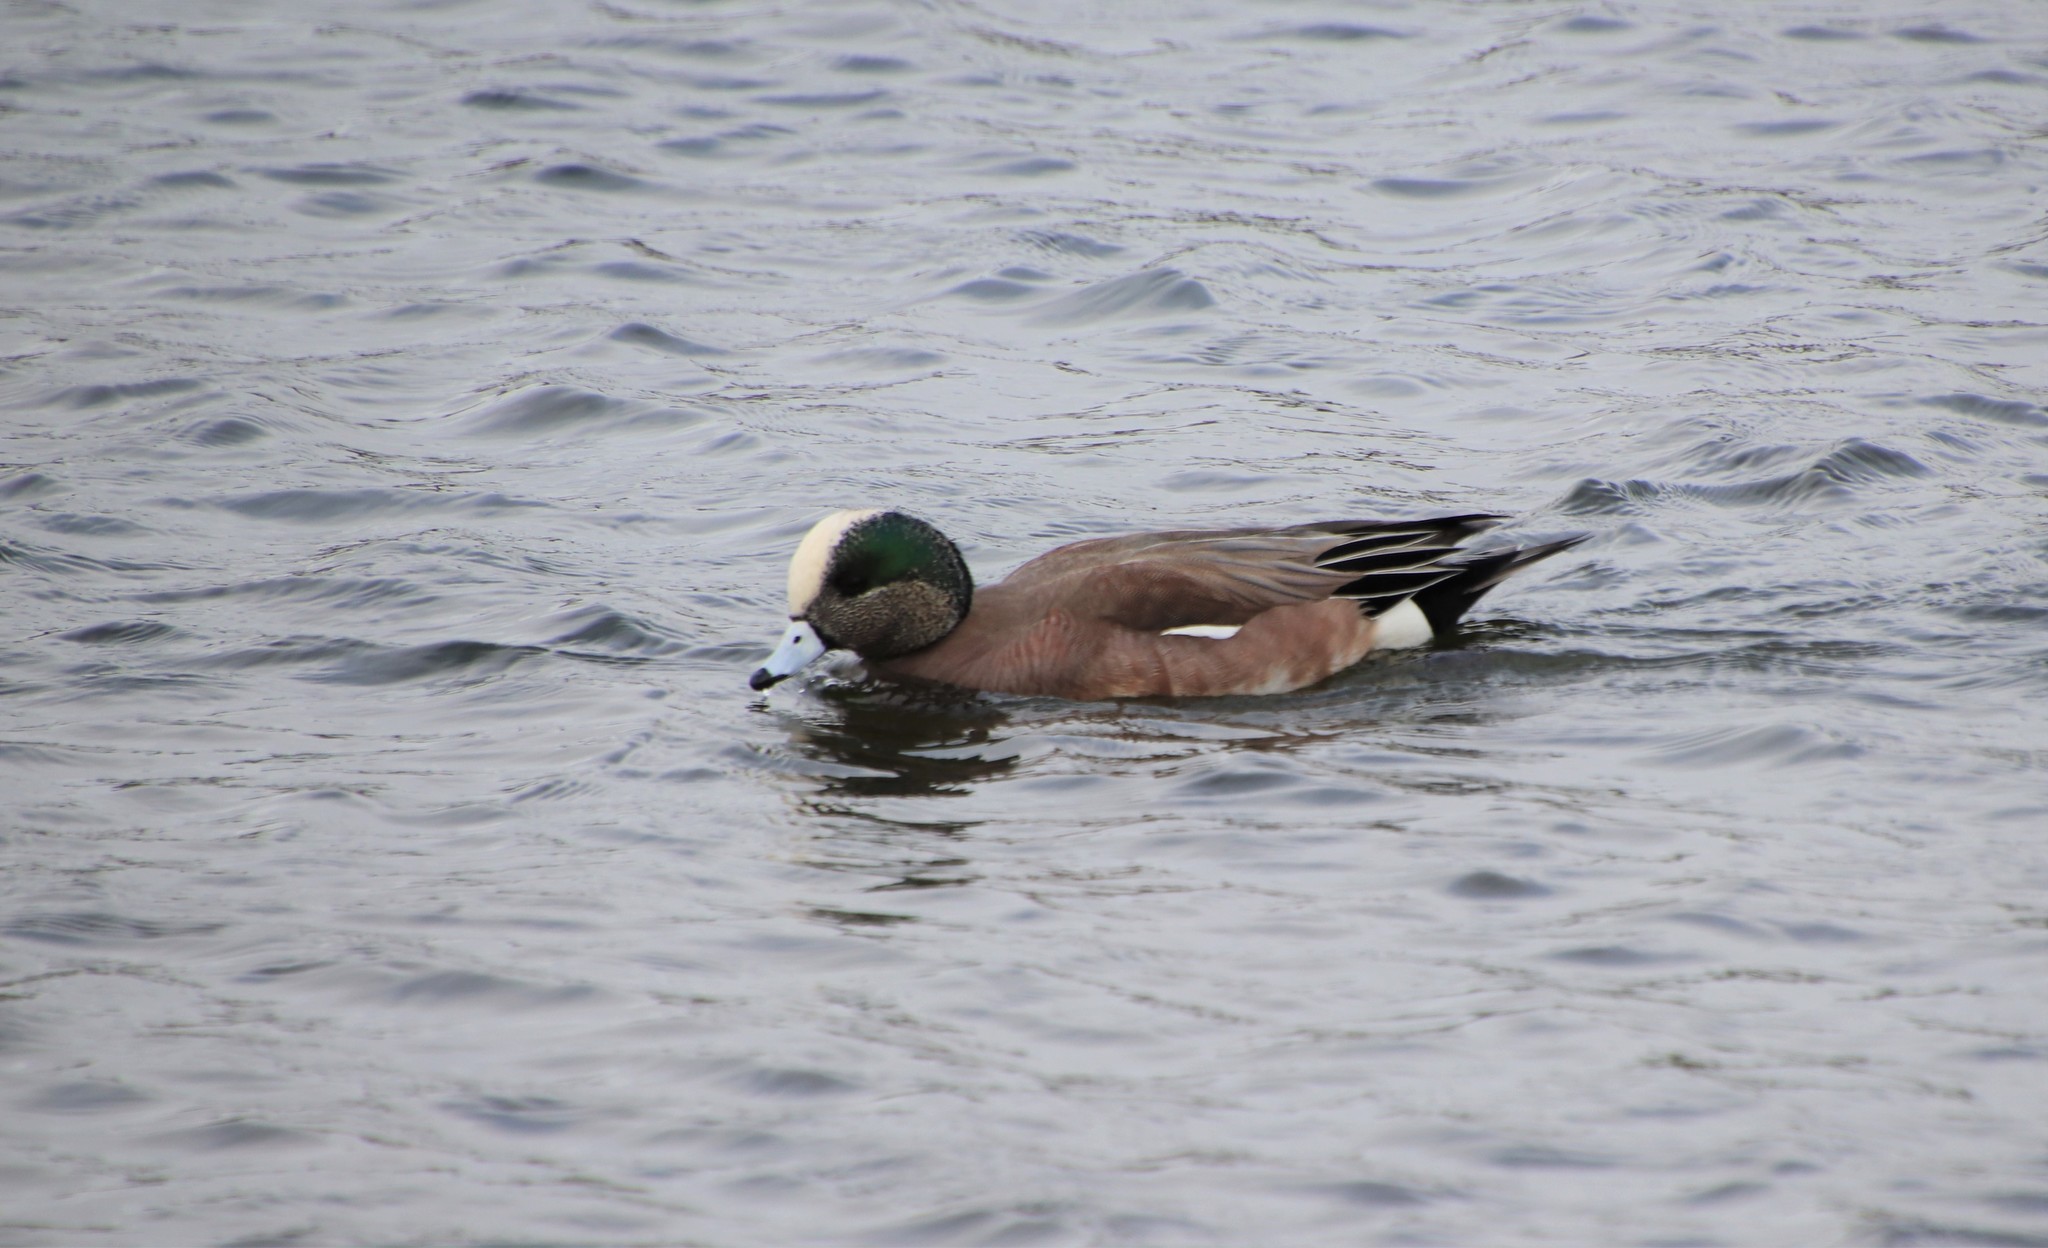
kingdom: Animalia
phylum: Chordata
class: Aves
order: Anseriformes
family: Anatidae
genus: Mareca
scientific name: Mareca americana
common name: American wigeon
